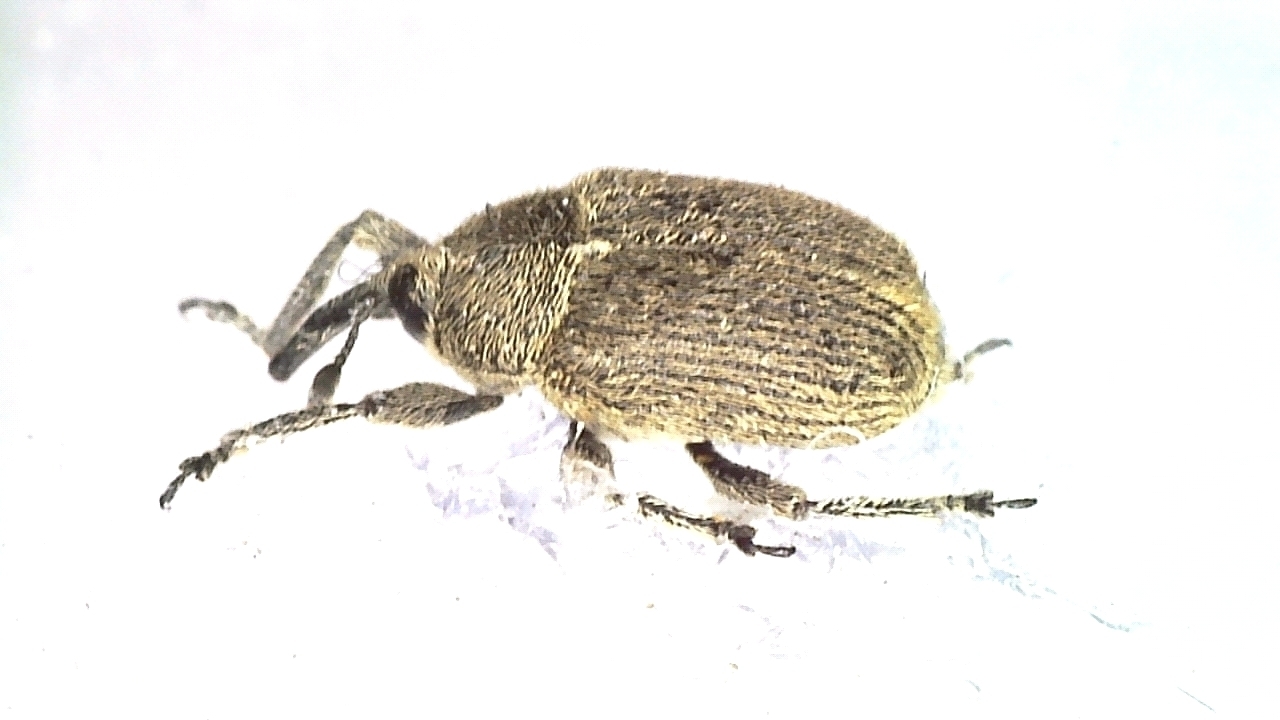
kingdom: Animalia
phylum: Arthropoda
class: Insecta
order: Coleoptera
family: Curculionidae
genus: Gymnetron
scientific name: Gymnetron eversmanni
